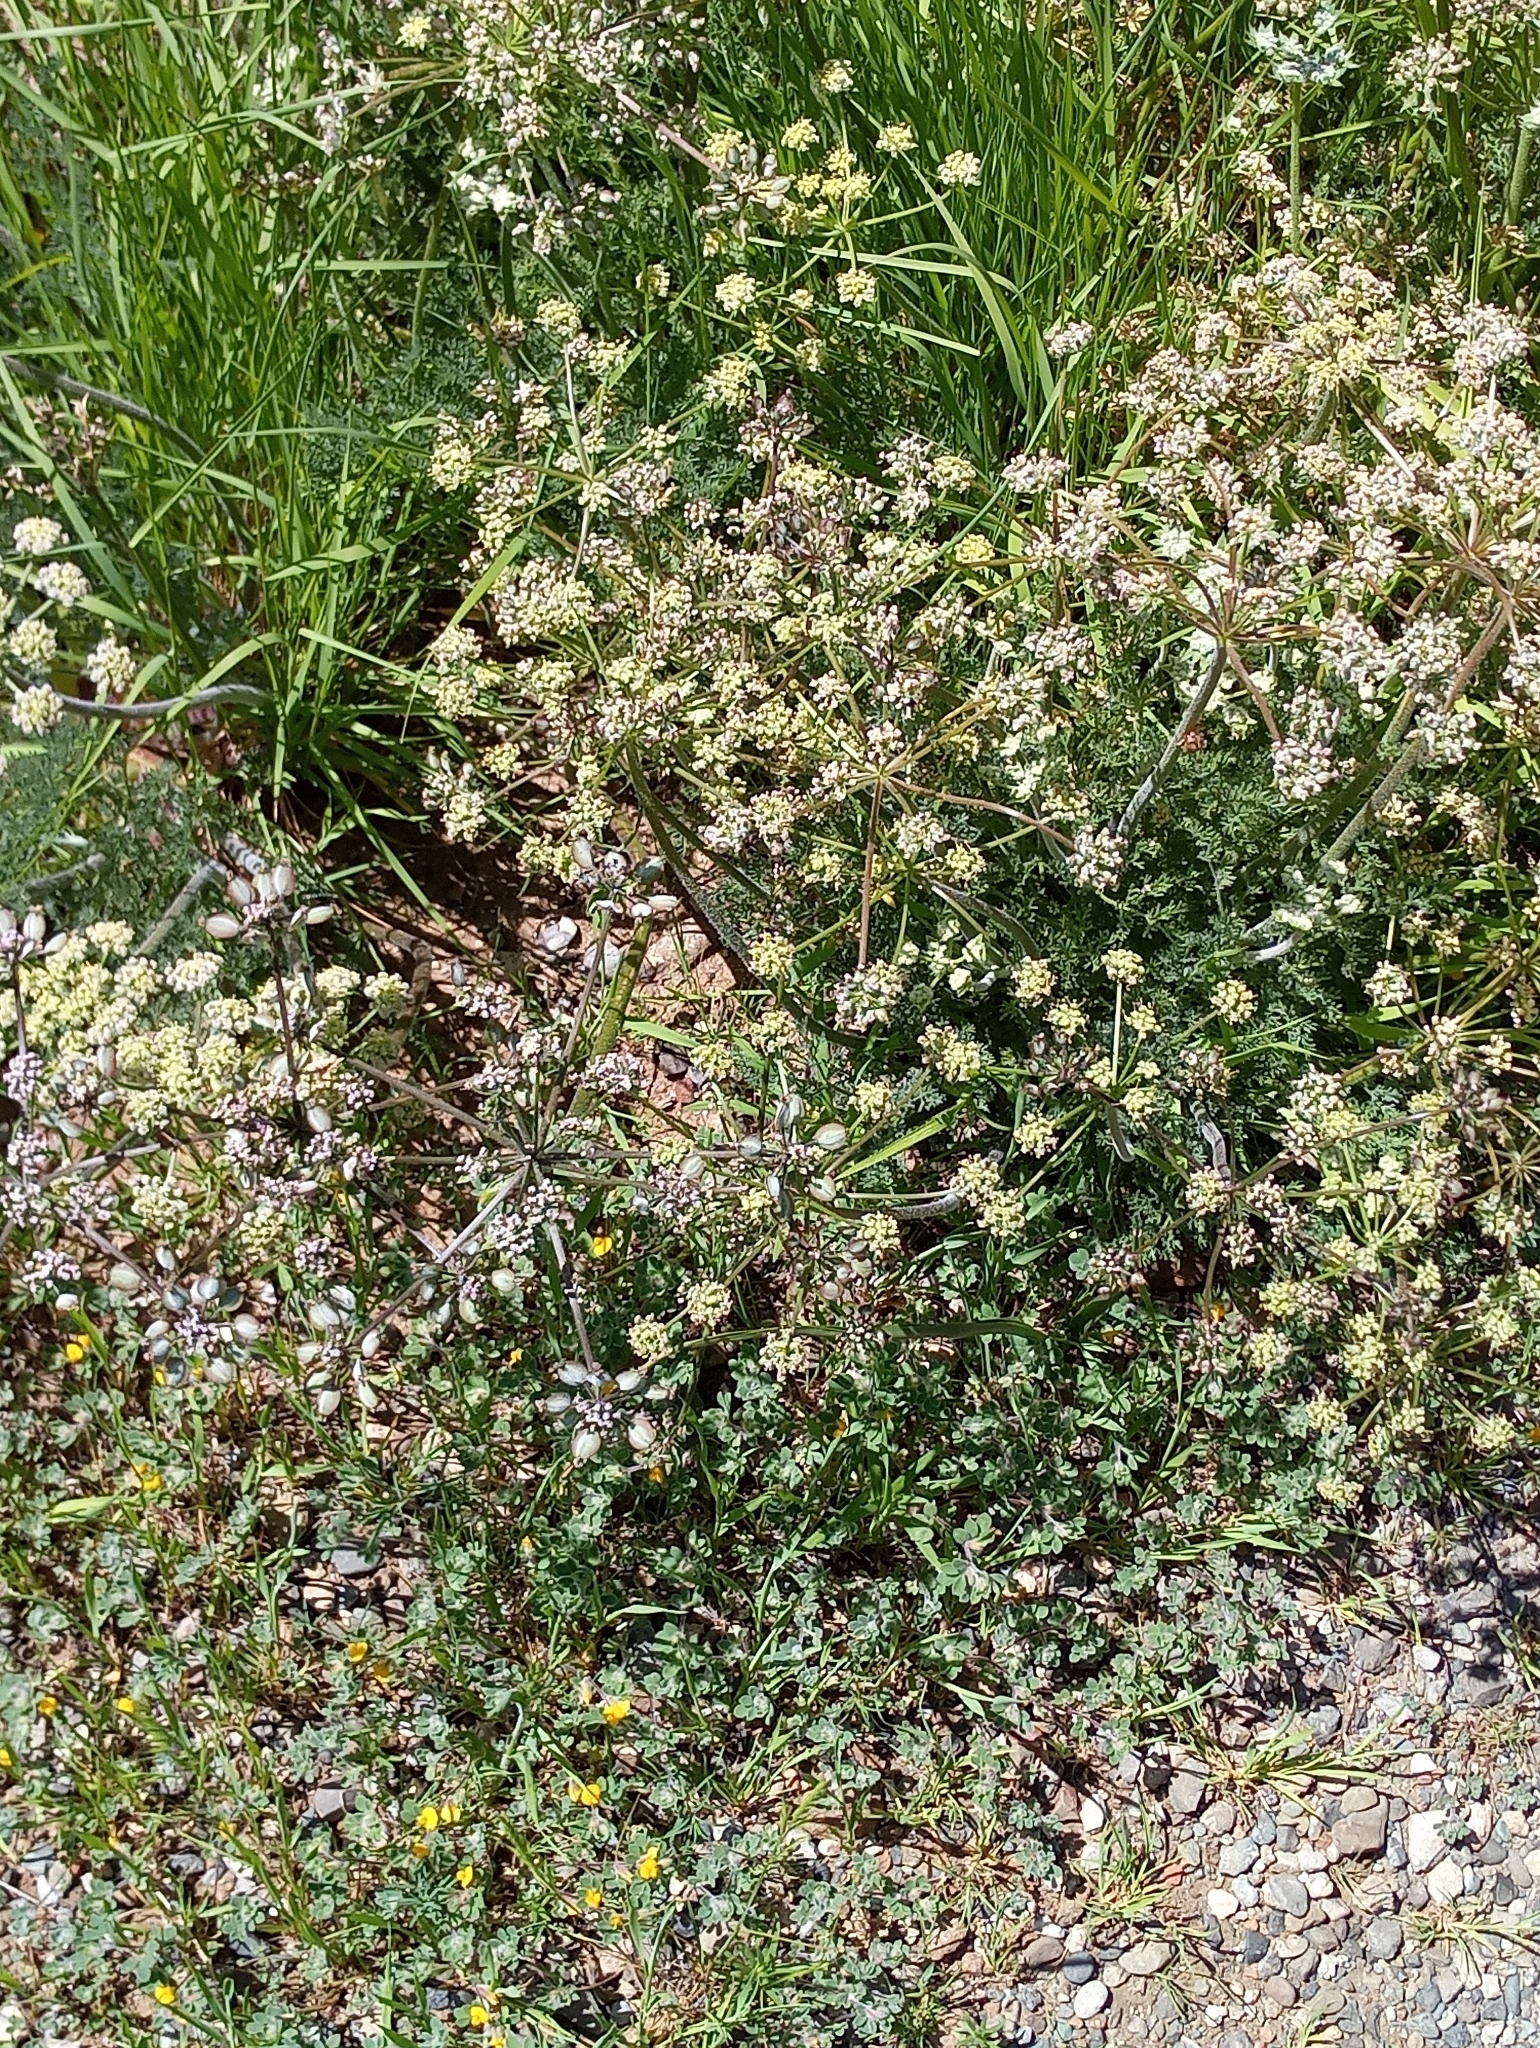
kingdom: Plantae
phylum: Tracheophyta
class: Magnoliopsida
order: Apiales
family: Apiaceae
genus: Lomatium
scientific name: Lomatium dasycarpum
